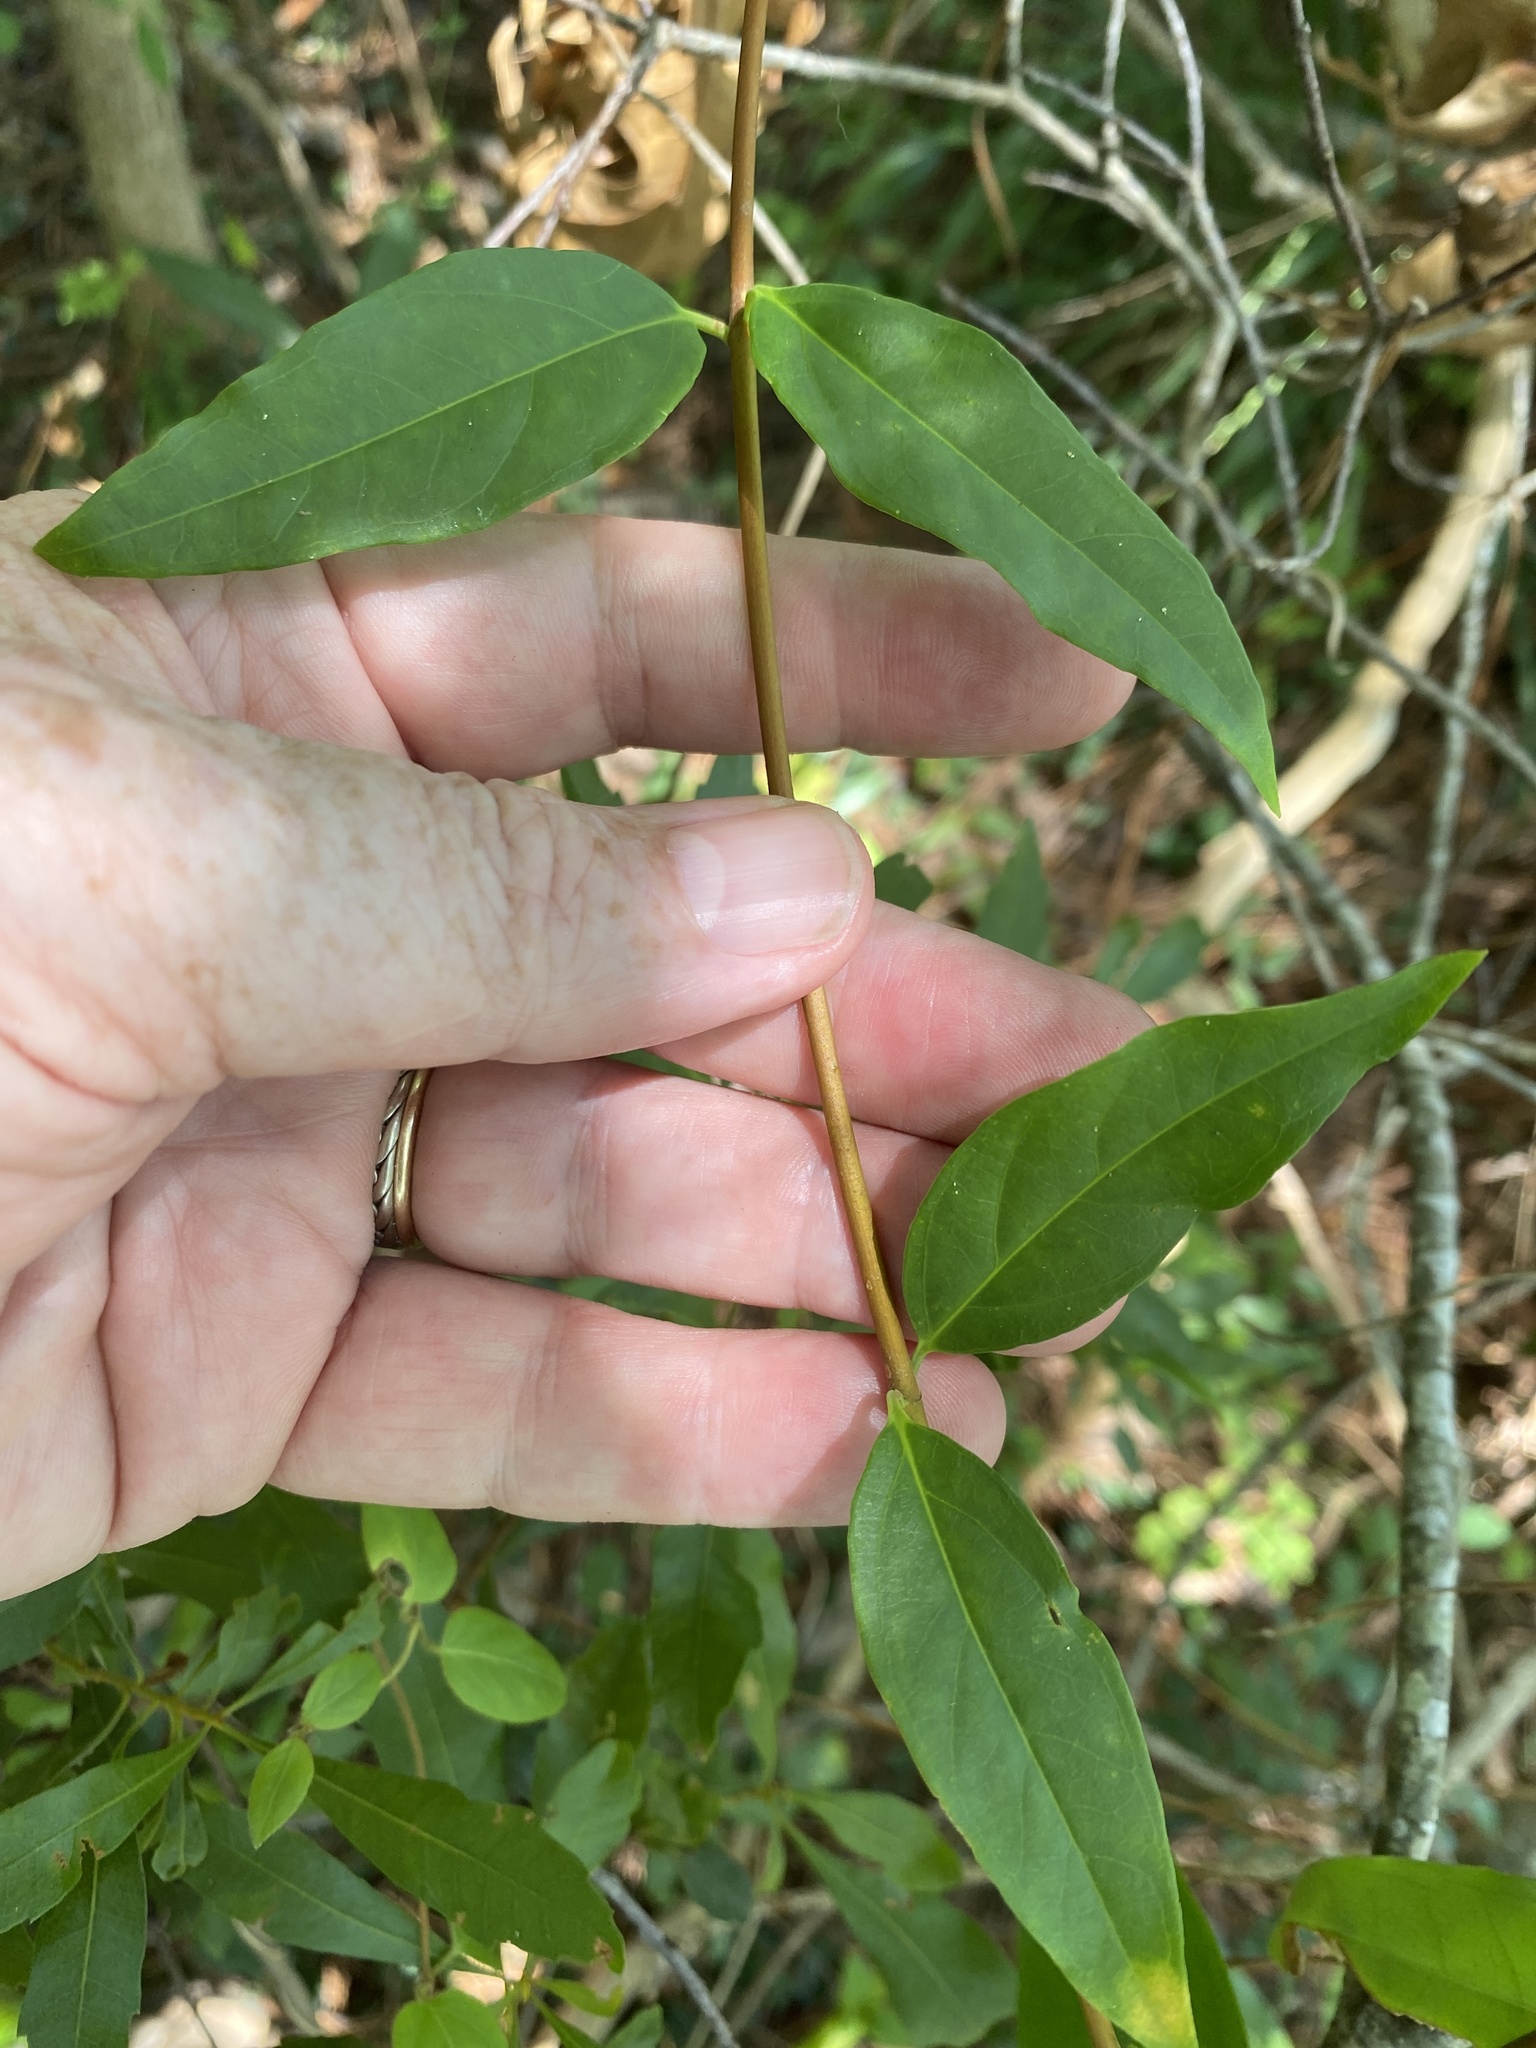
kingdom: Plantae
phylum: Tracheophyta
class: Magnoliopsida
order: Gentianales
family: Gelsemiaceae
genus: Gelsemium
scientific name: Gelsemium sempervirens
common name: Carolina-jasmine
